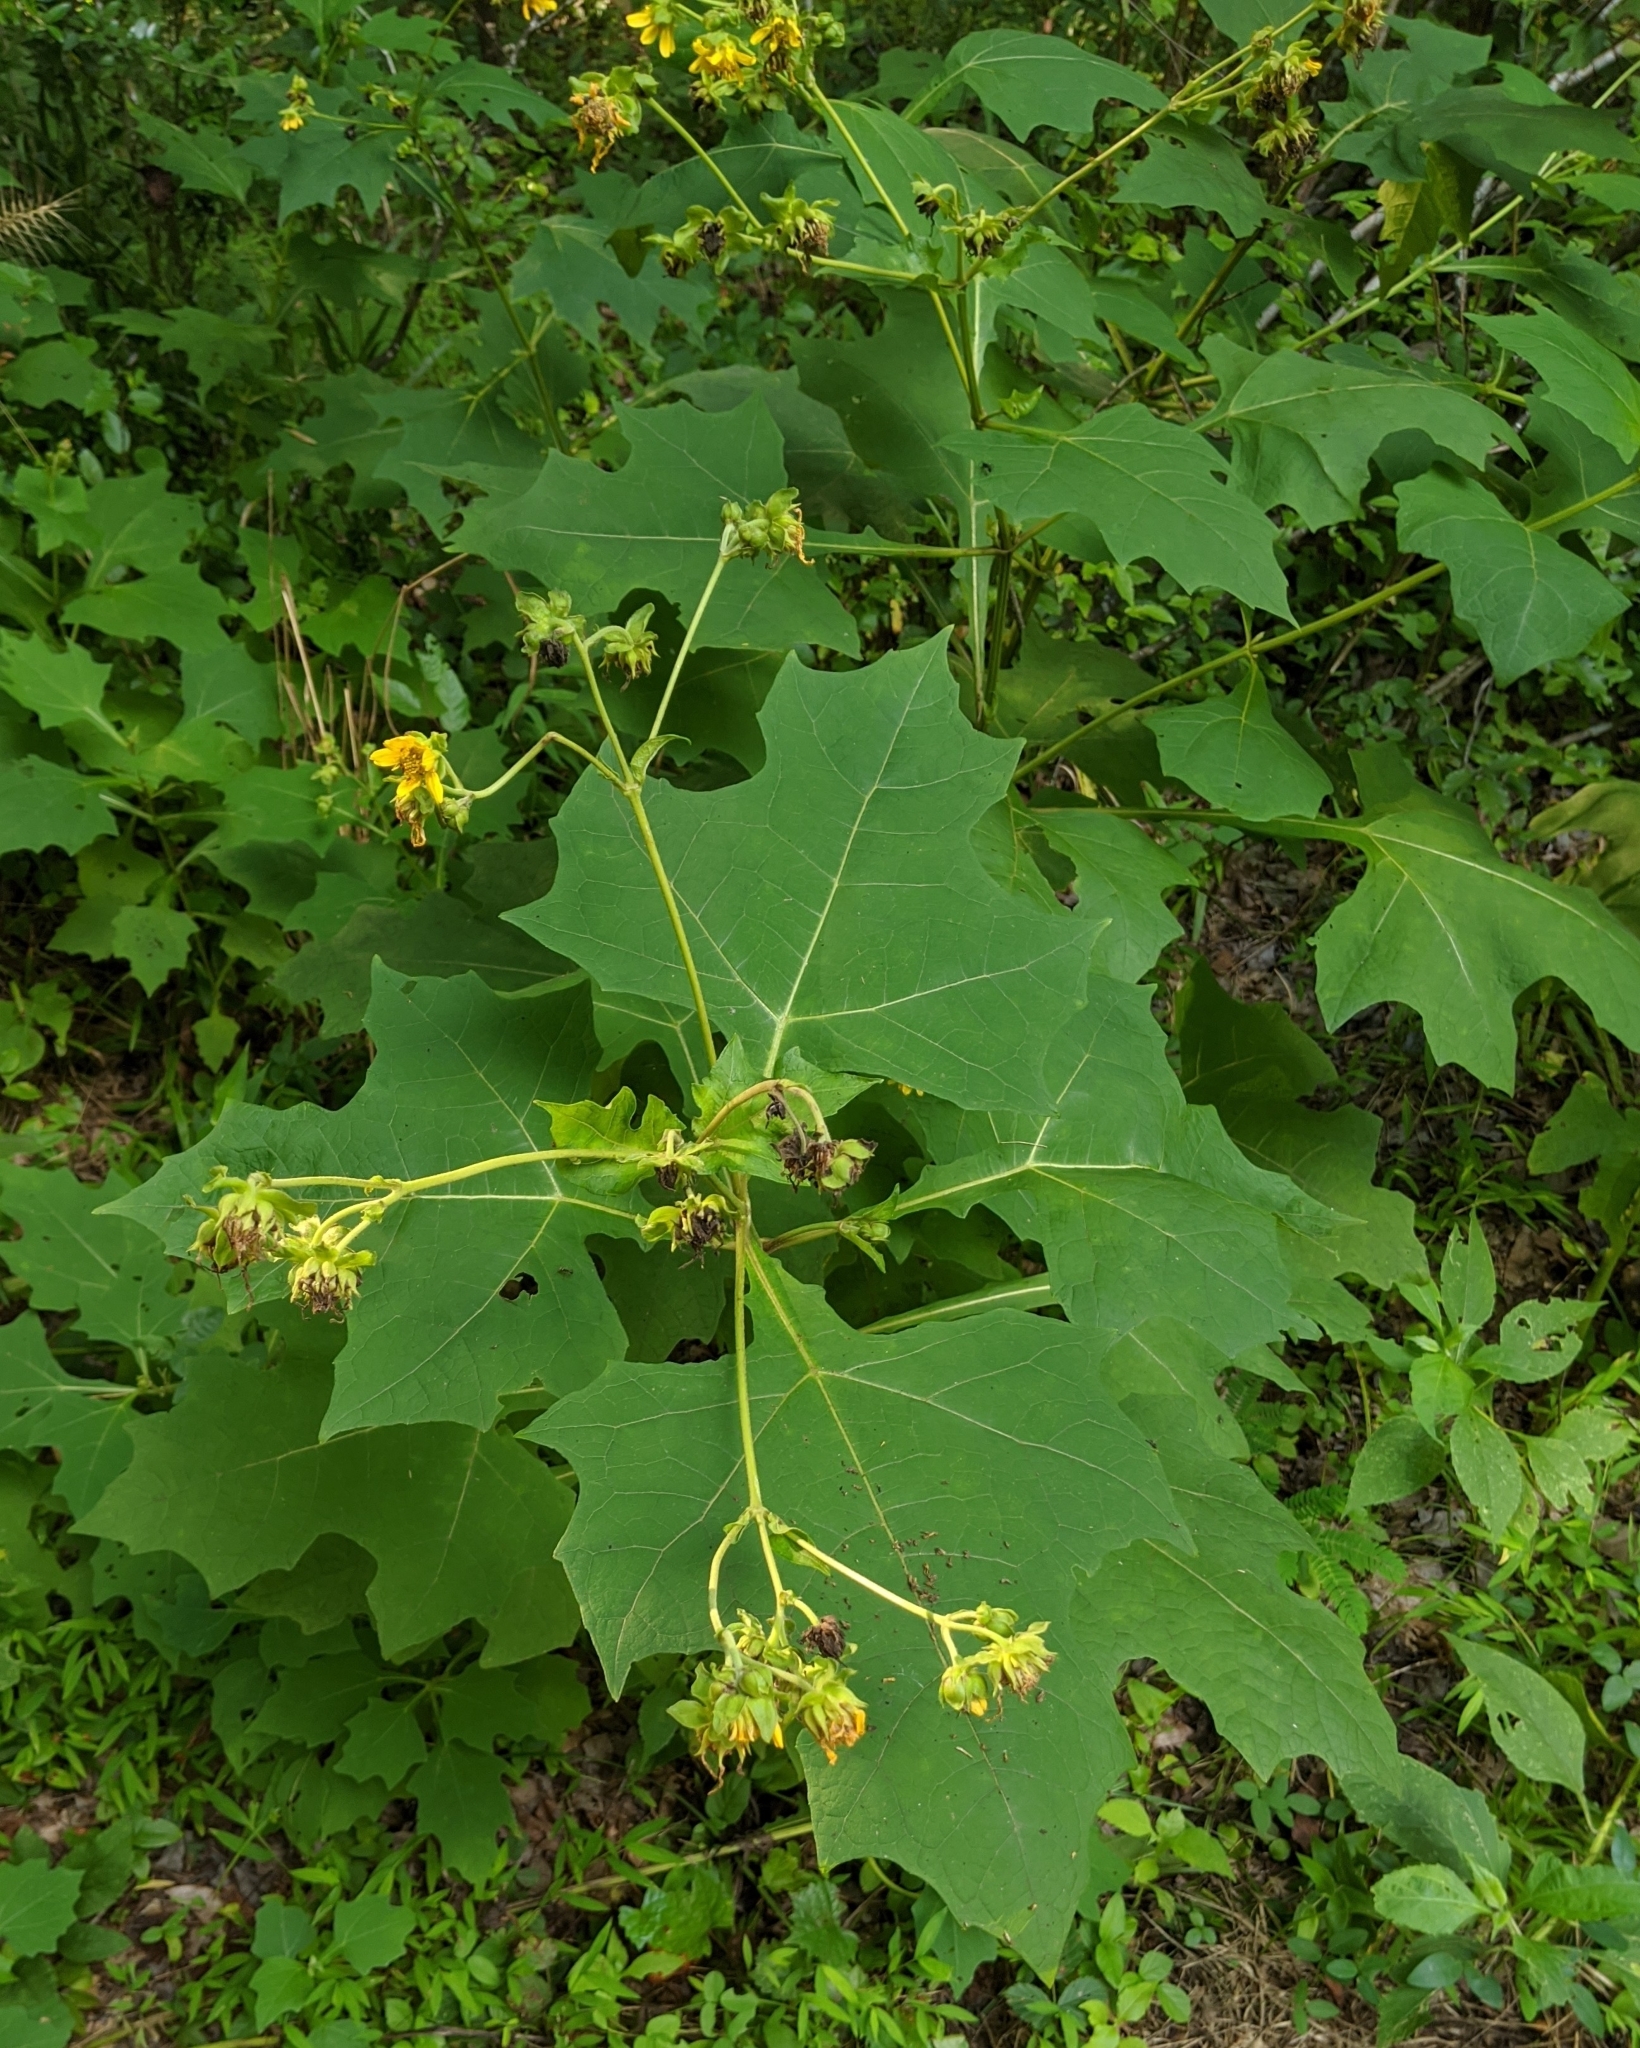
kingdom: Plantae
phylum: Tracheophyta
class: Magnoliopsida
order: Asterales
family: Asteraceae
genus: Smallanthus
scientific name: Smallanthus uvedalia
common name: Bear's-foot
